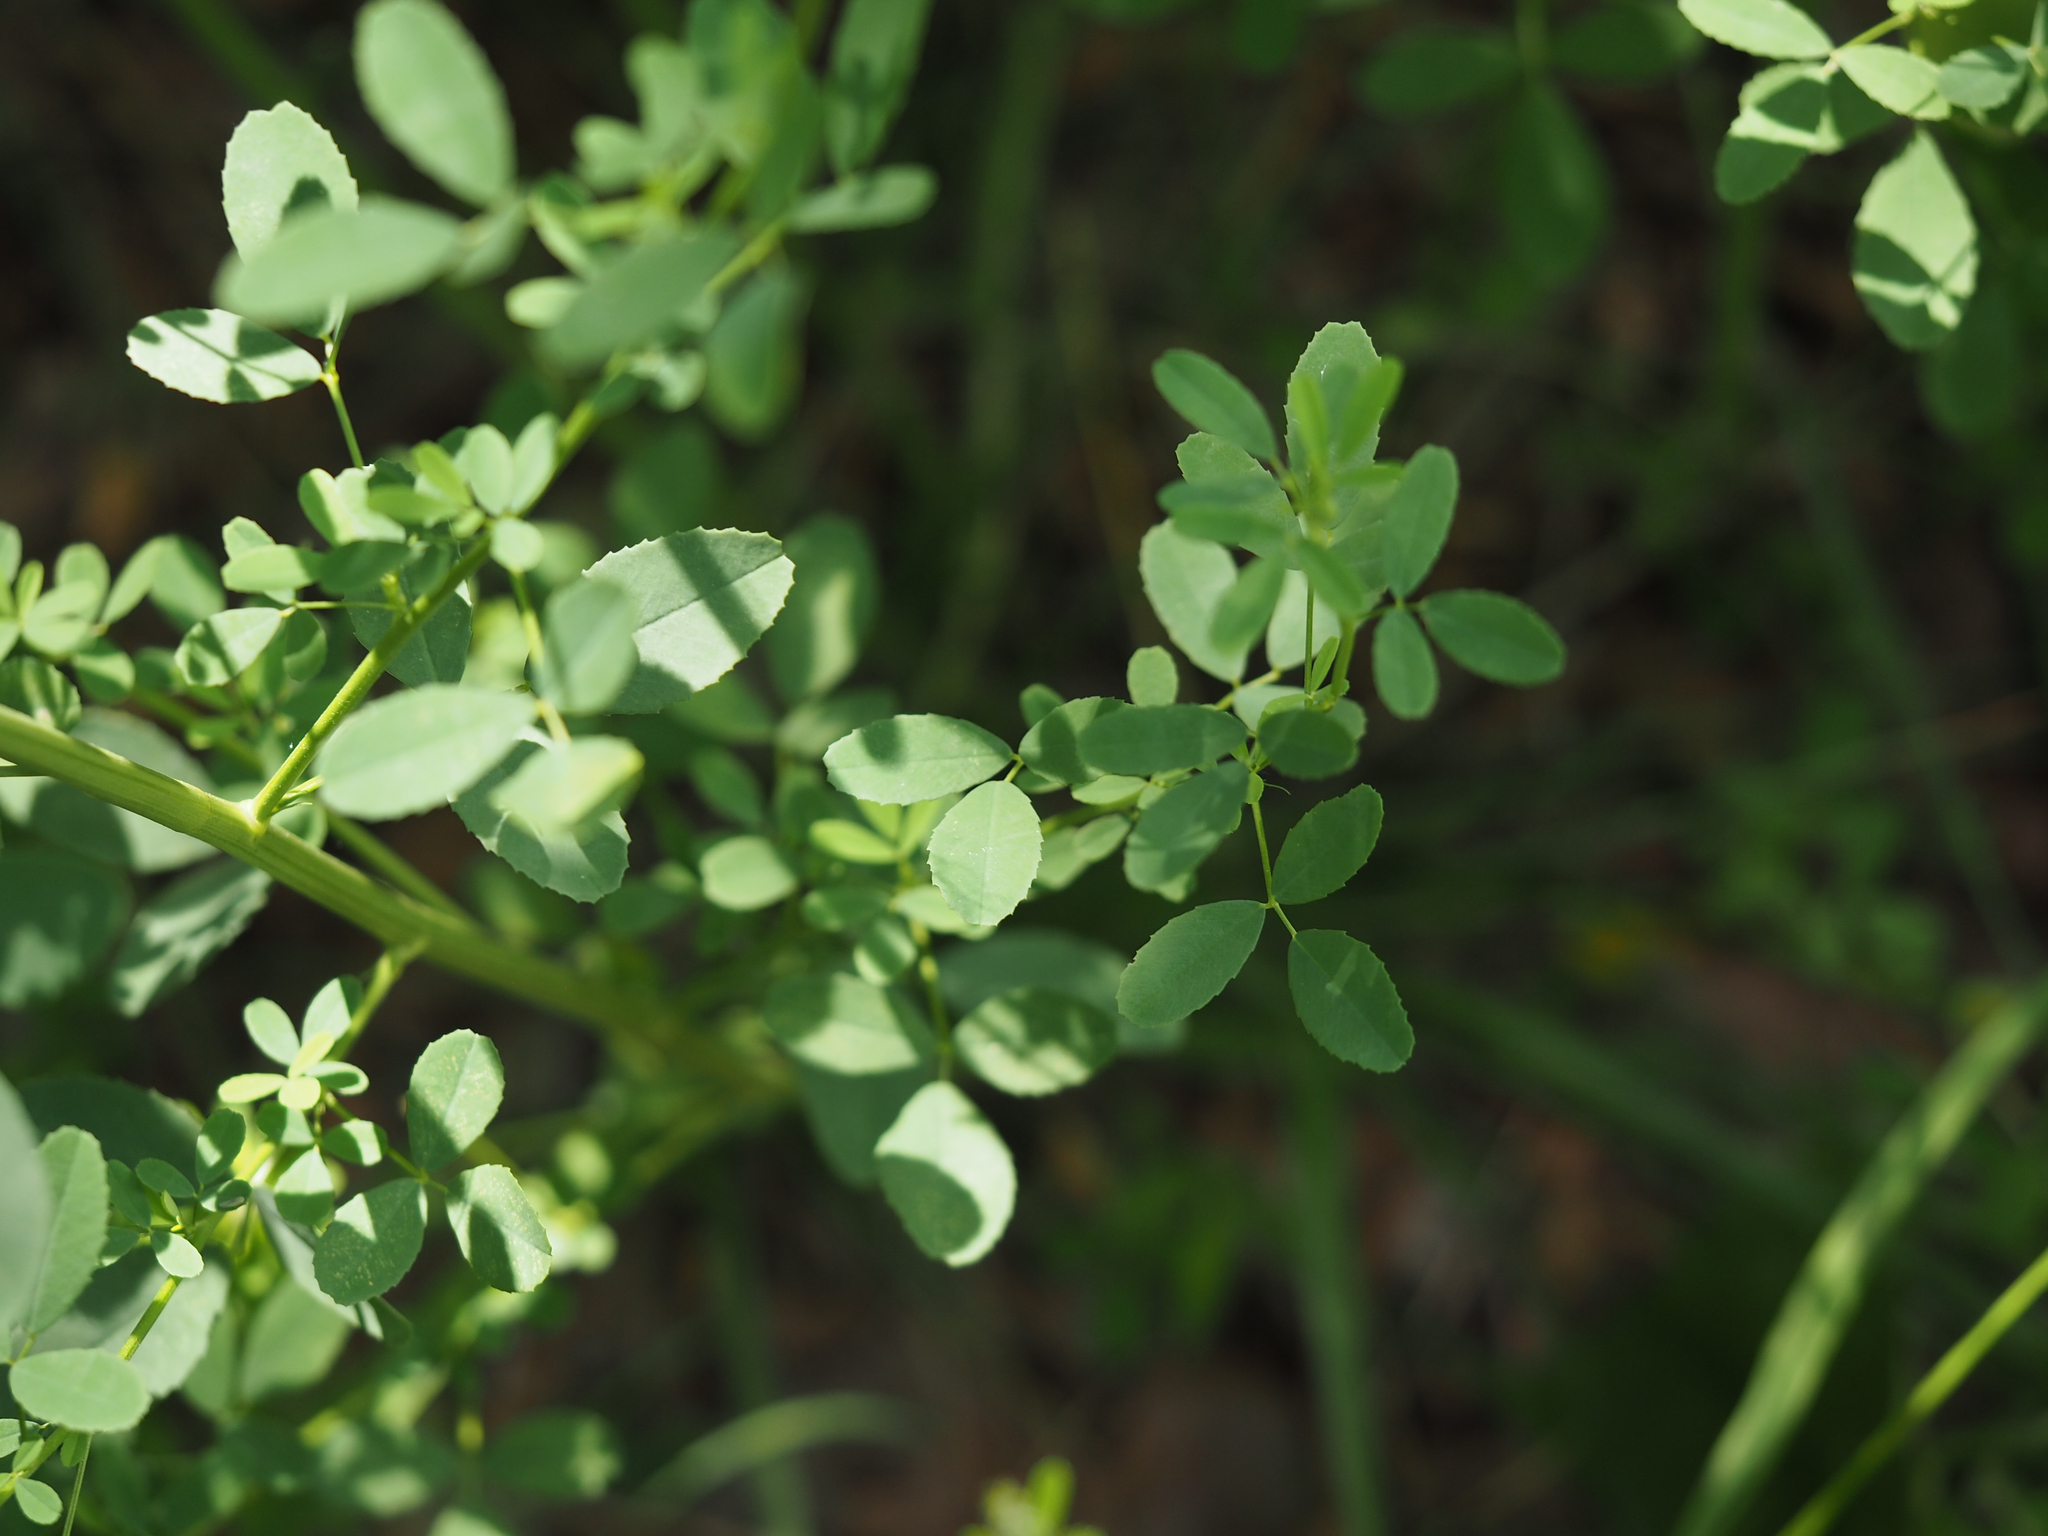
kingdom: Plantae
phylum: Tracheophyta
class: Magnoliopsida
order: Fabales
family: Fabaceae
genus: Melilotus
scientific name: Melilotus albus
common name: White melilot
